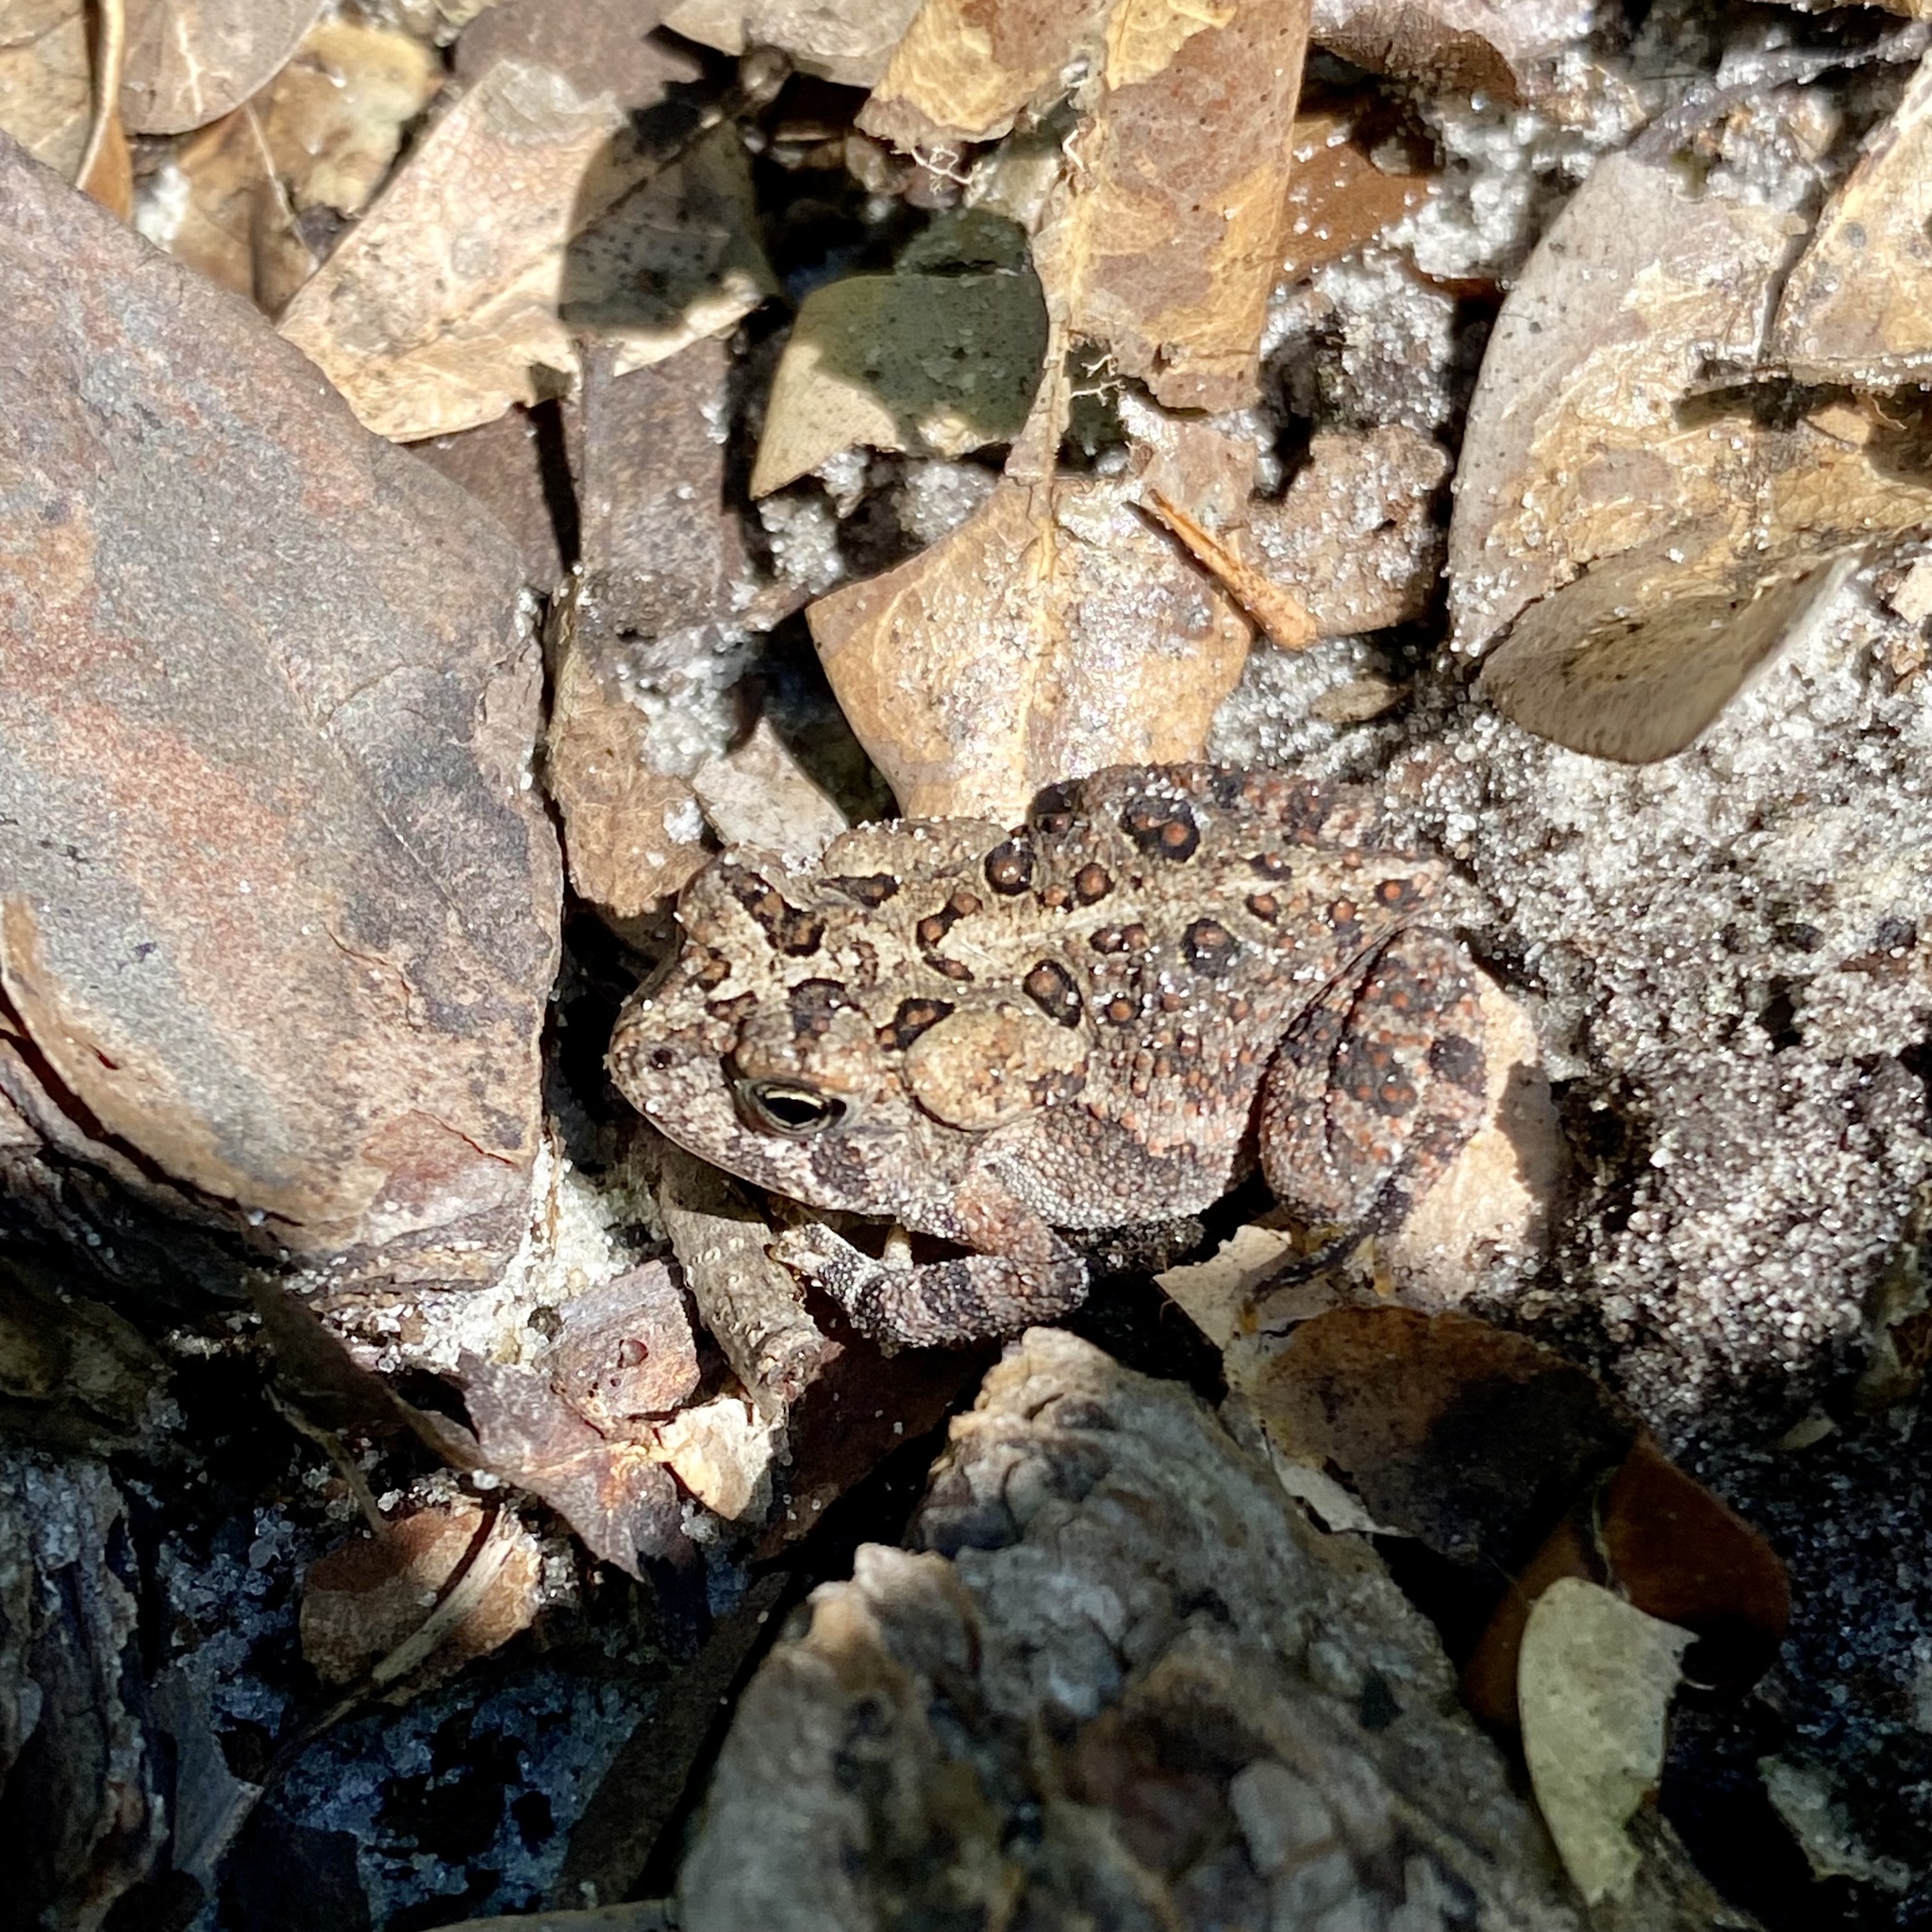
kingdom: Animalia
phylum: Chordata
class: Amphibia
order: Anura
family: Bufonidae
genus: Anaxyrus
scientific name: Anaxyrus terrestris
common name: Southern toad
